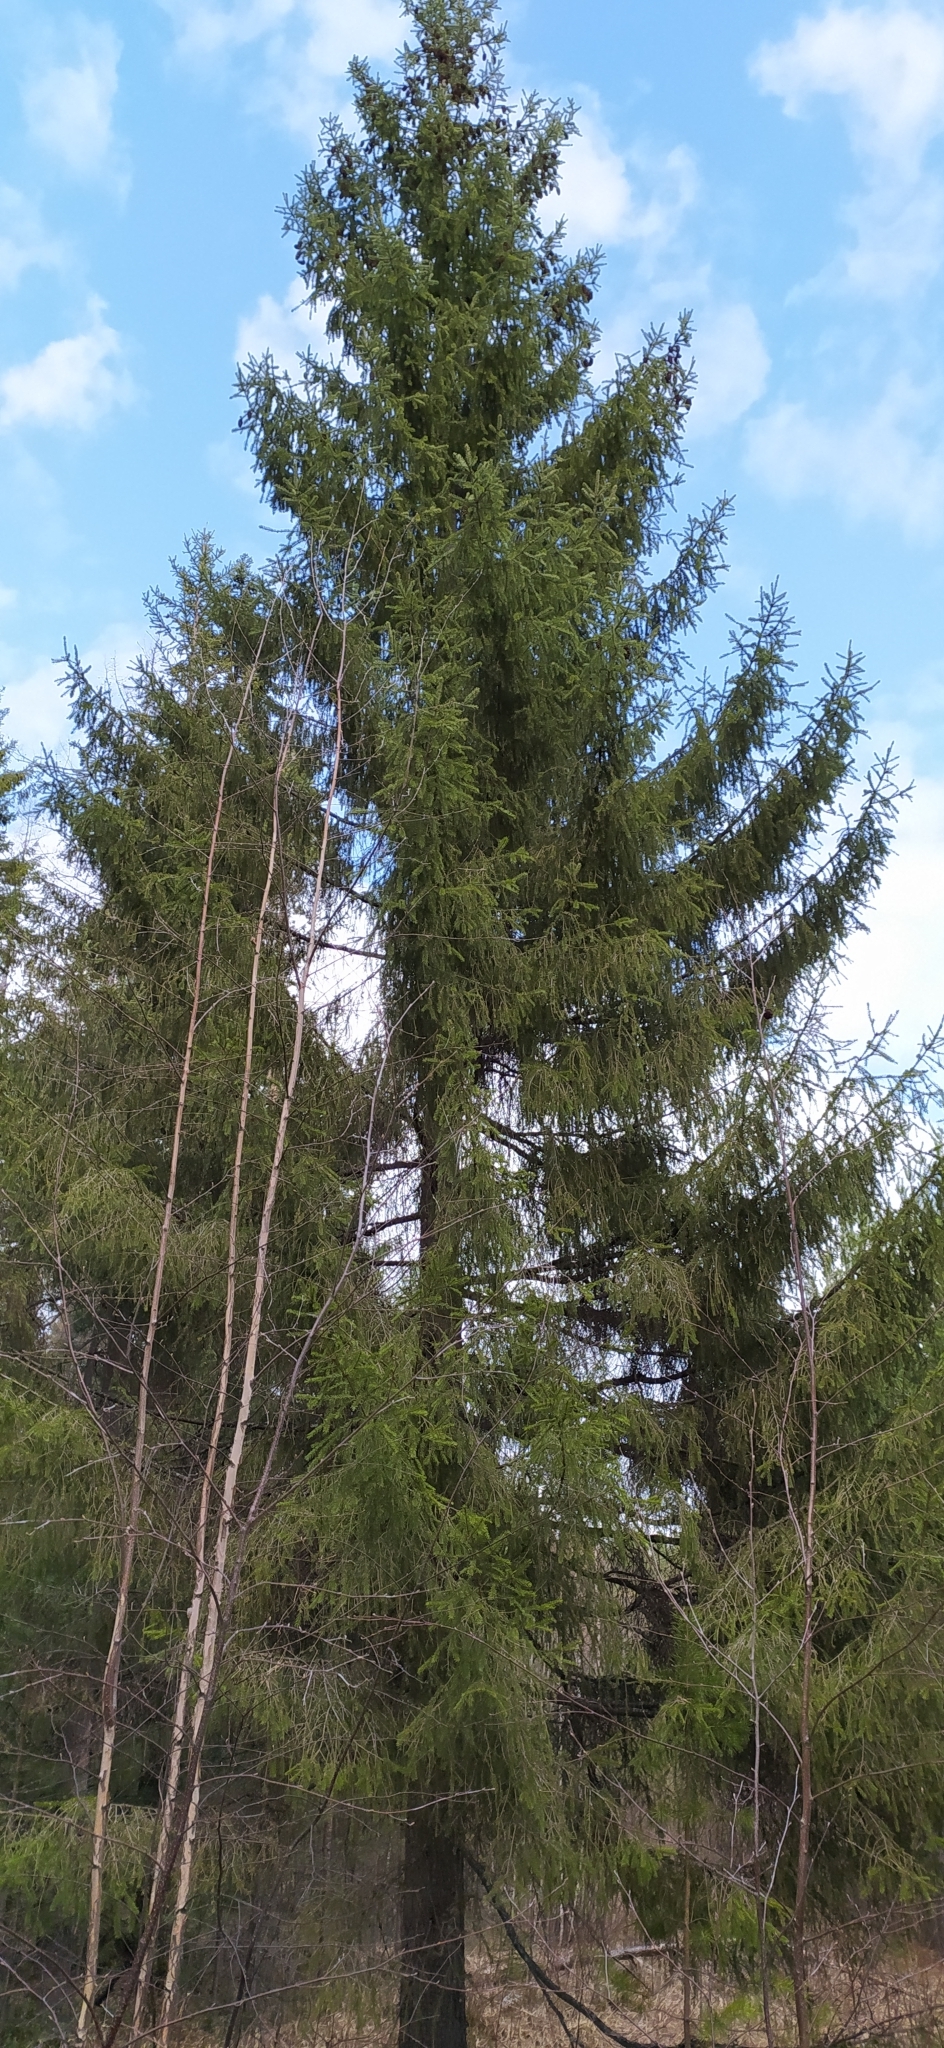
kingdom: Plantae
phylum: Tracheophyta
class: Pinopsida
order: Pinales
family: Pinaceae
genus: Picea
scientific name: Picea obovata
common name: Siberian spruce
